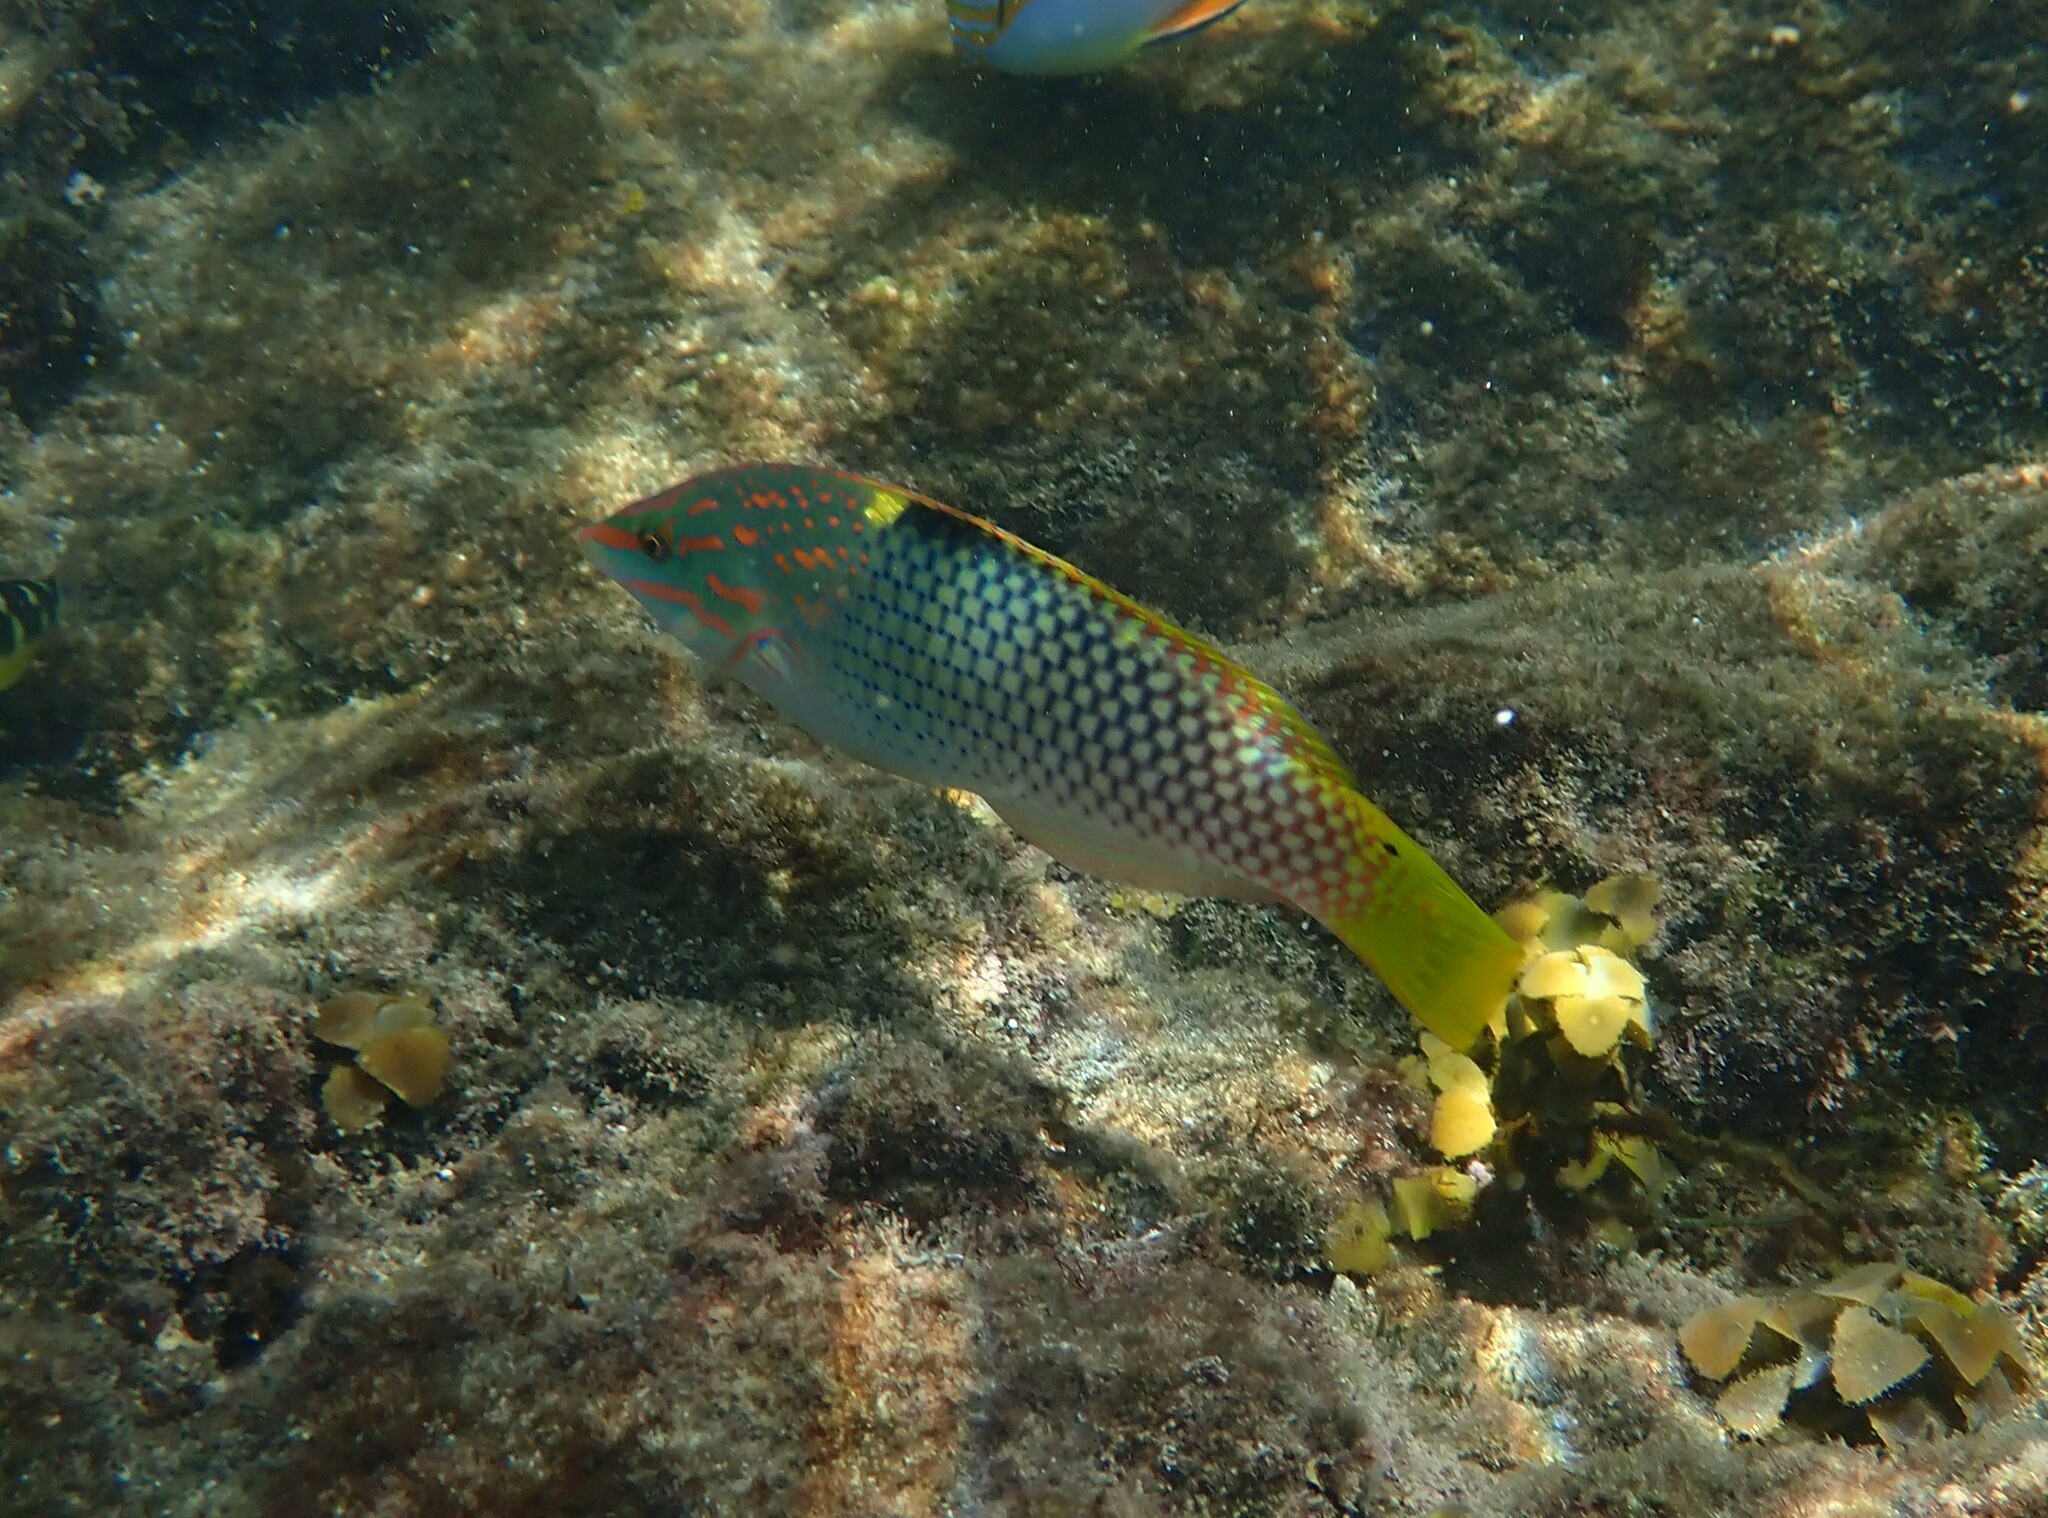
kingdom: Animalia
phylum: Chordata
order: Perciformes
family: Labridae
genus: Halichoeres
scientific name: Halichoeres hortulanus
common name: Checkerboard wrasse
